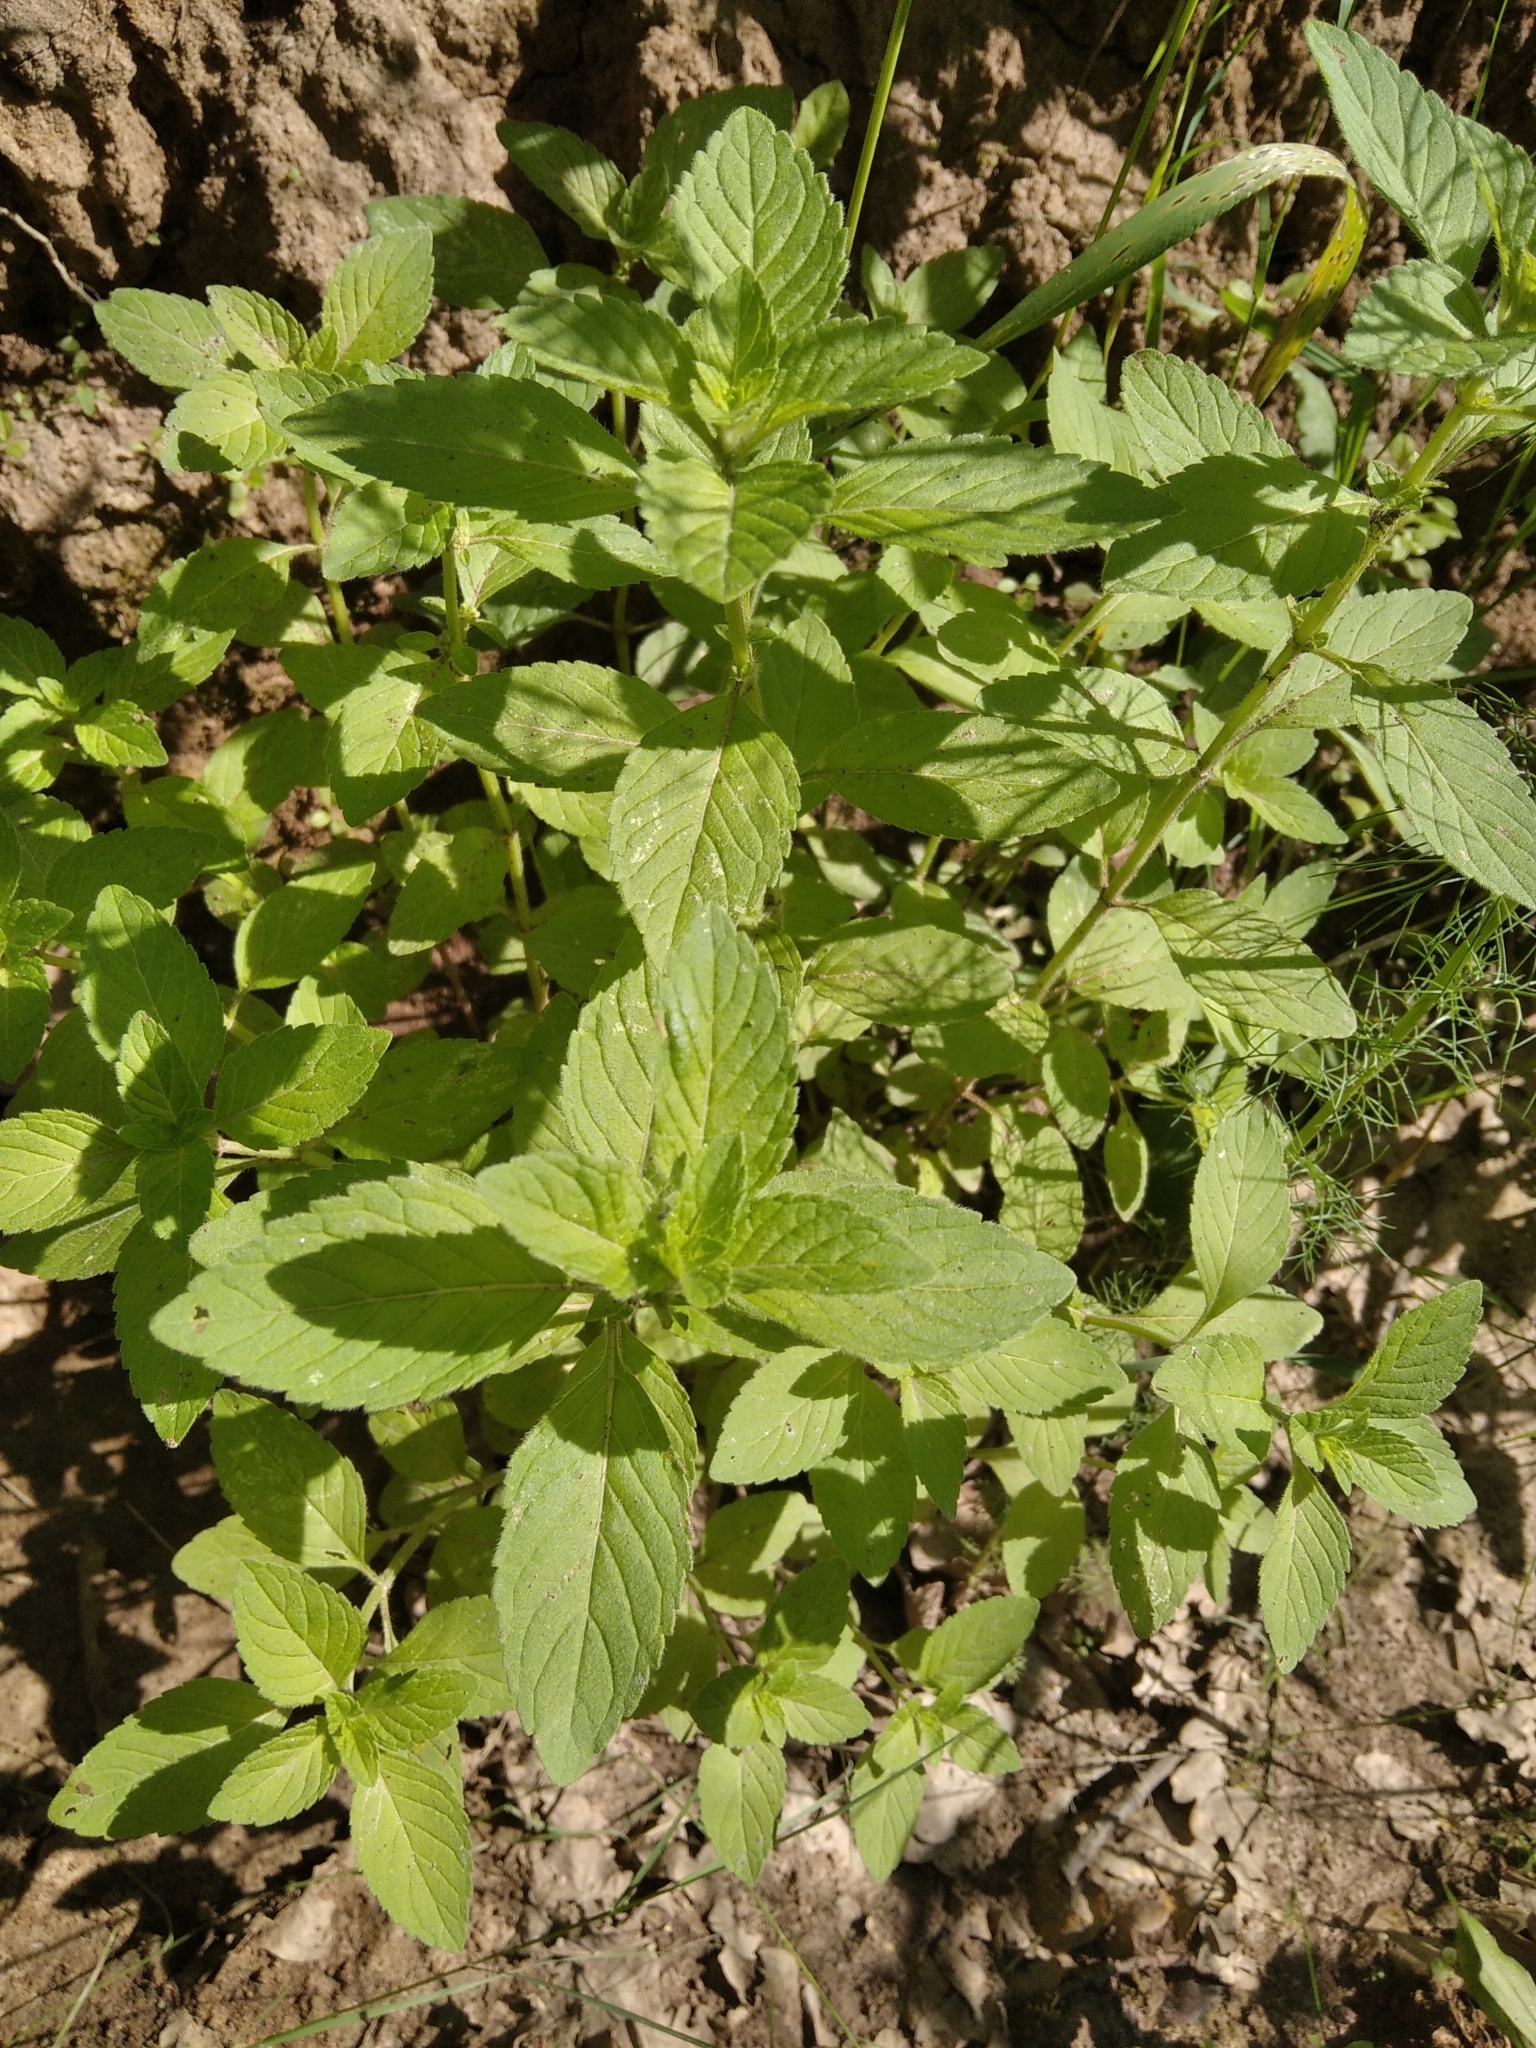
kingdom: Plantae
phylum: Tracheophyta
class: Magnoliopsida
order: Lamiales
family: Lamiaceae
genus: Mentha
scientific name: Mentha arvensis
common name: Corn mint
